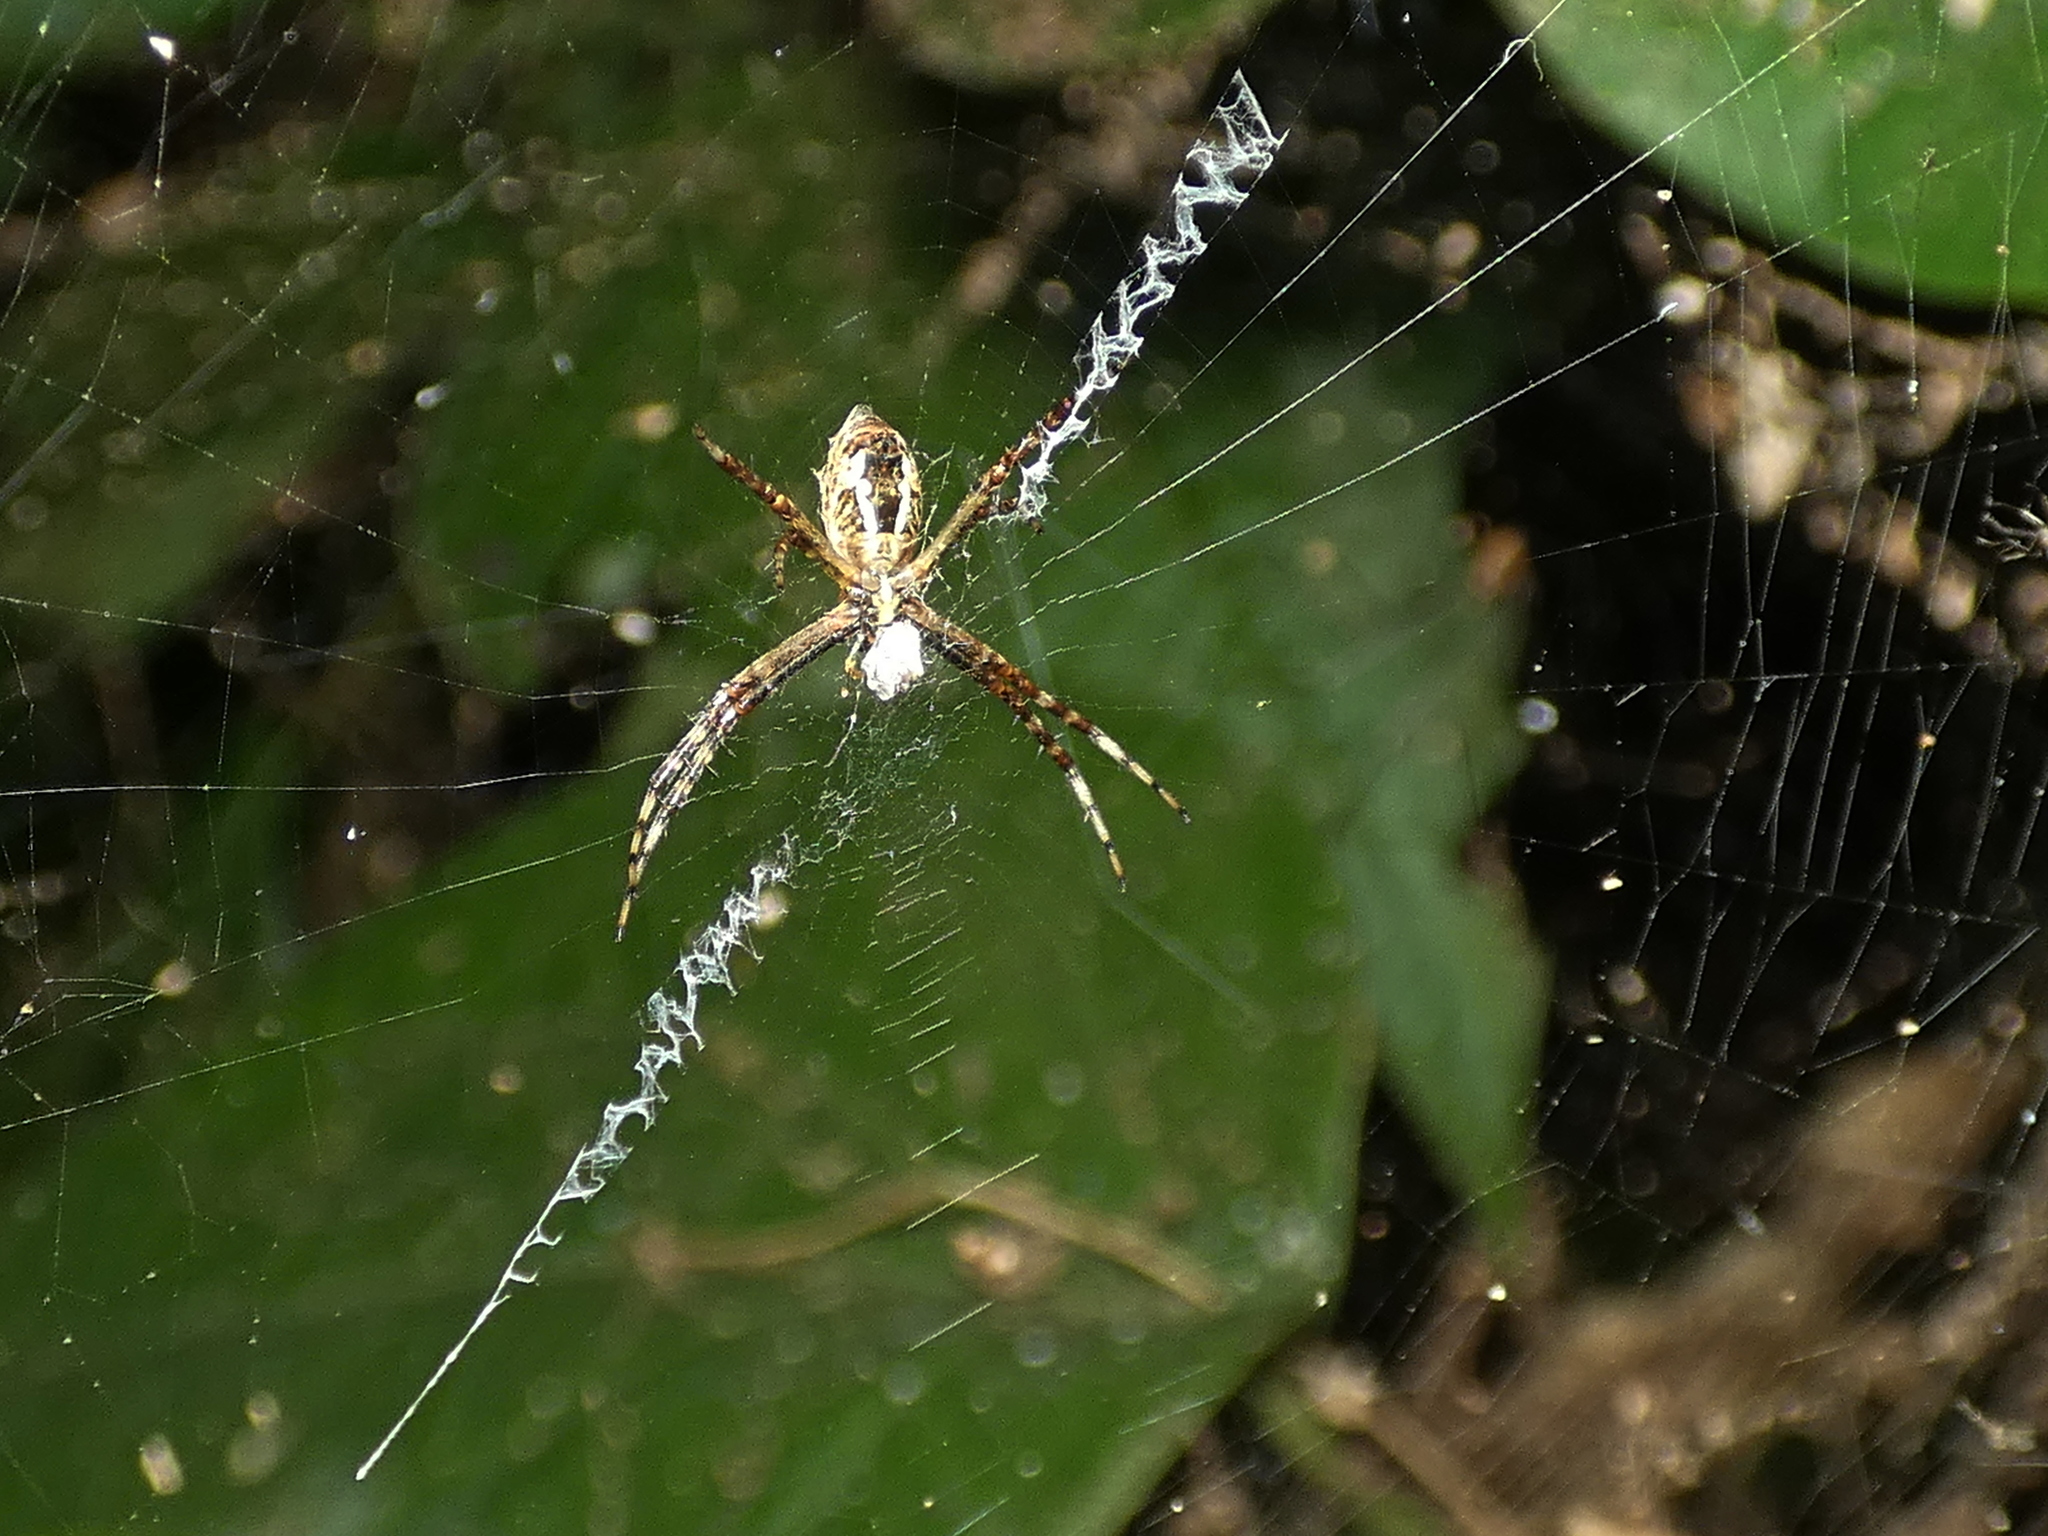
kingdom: Animalia
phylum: Arthropoda
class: Arachnida
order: Araneae
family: Araneidae
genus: Argiope
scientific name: Argiope argentata
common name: Orb weavers
